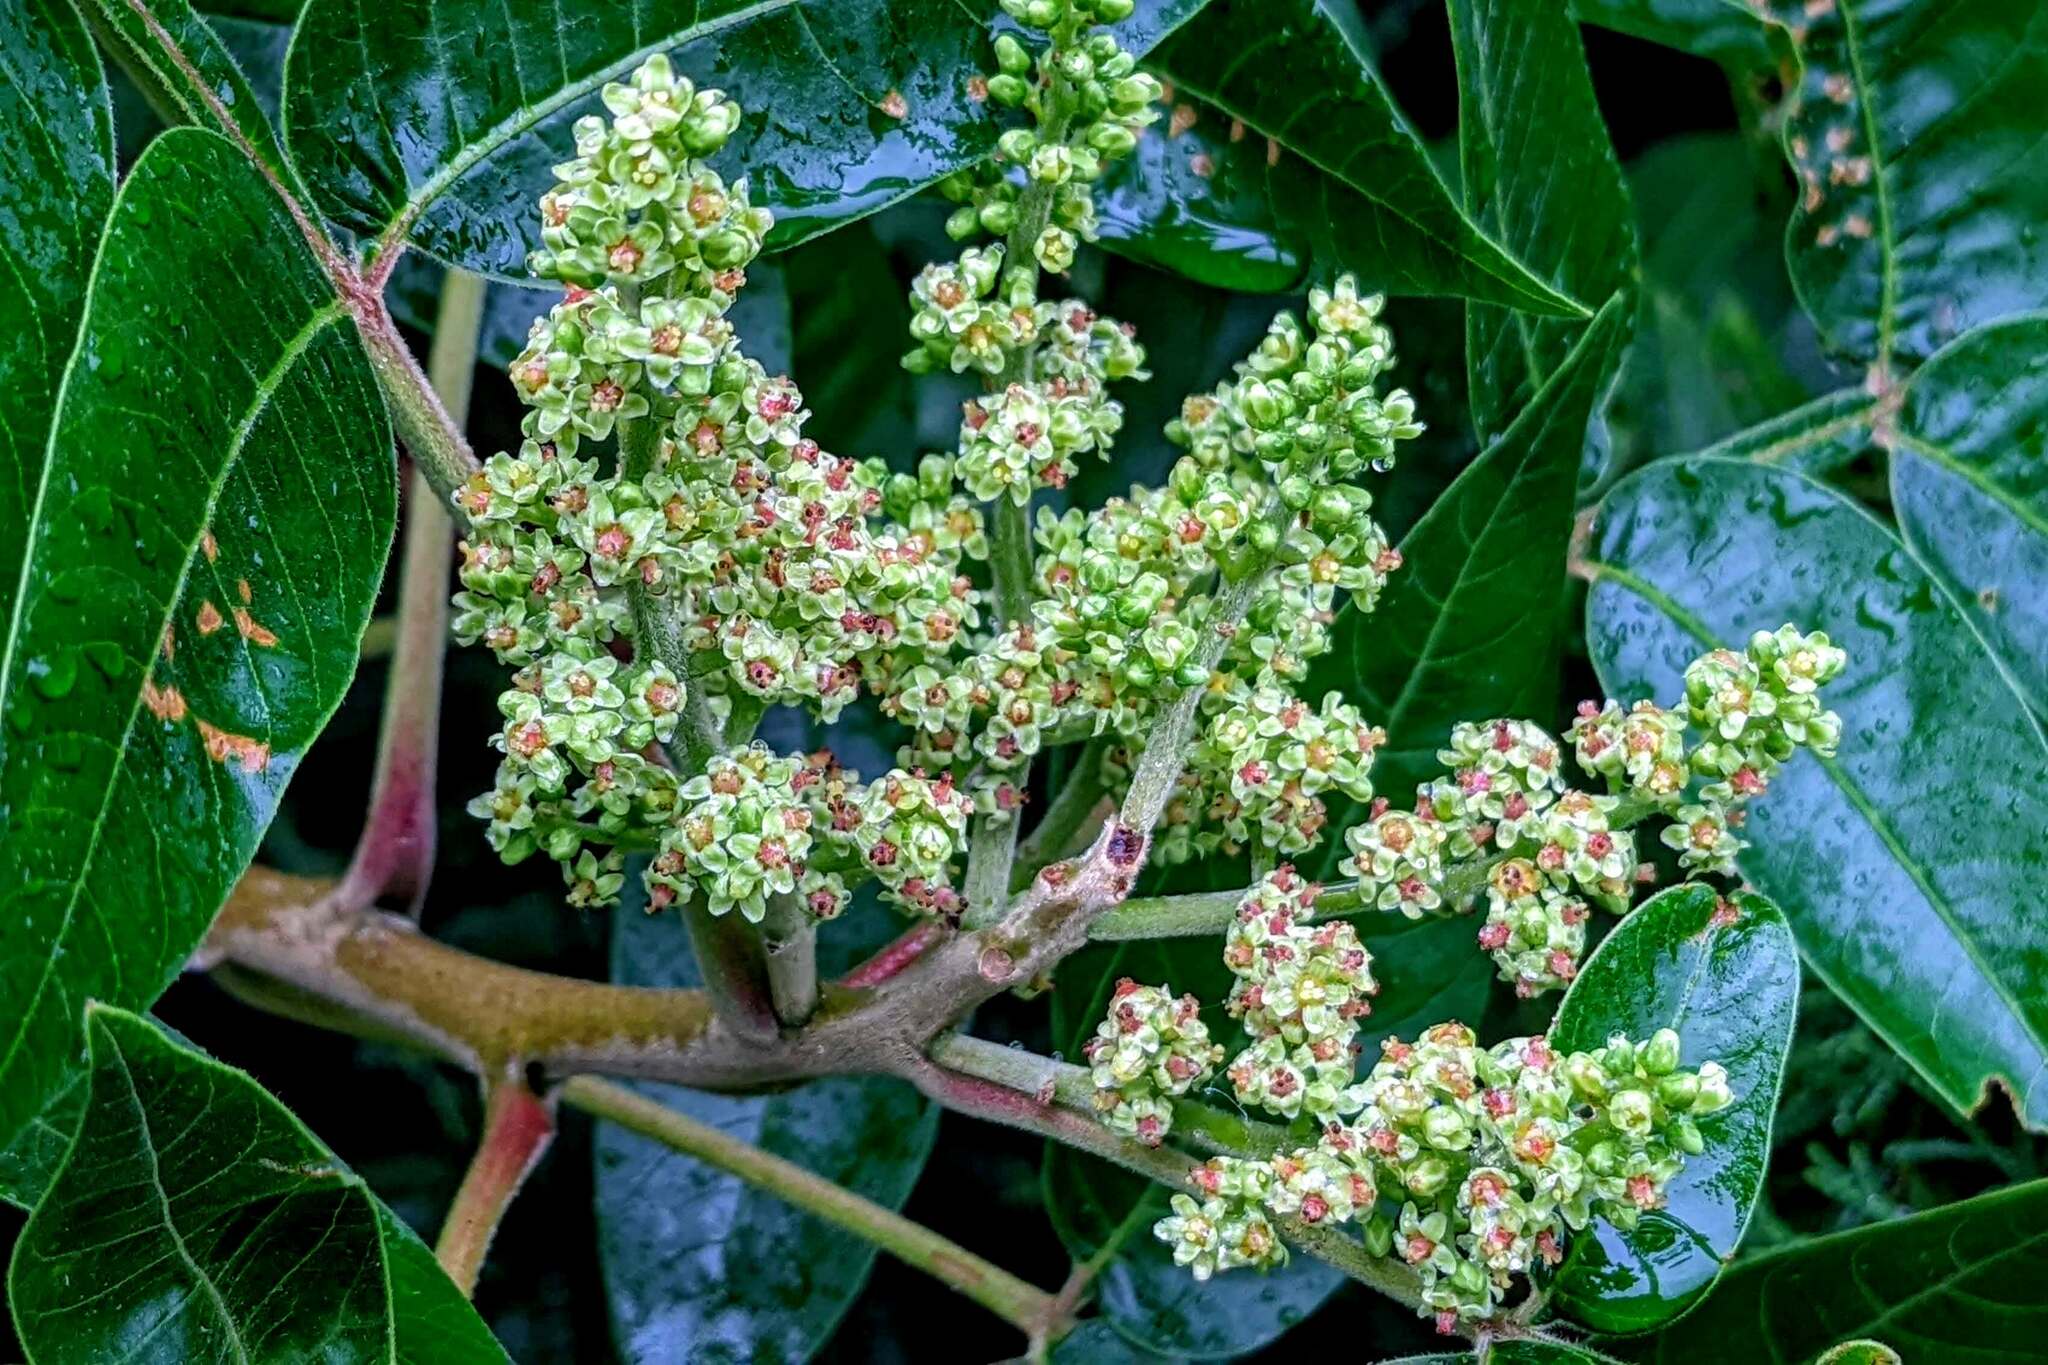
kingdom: Plantae
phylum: Tracheophyta
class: Magnoliopsida
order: Sapindales
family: Anacardiaceae
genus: Rhus
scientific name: Rhus copallina
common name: Shining sumac
